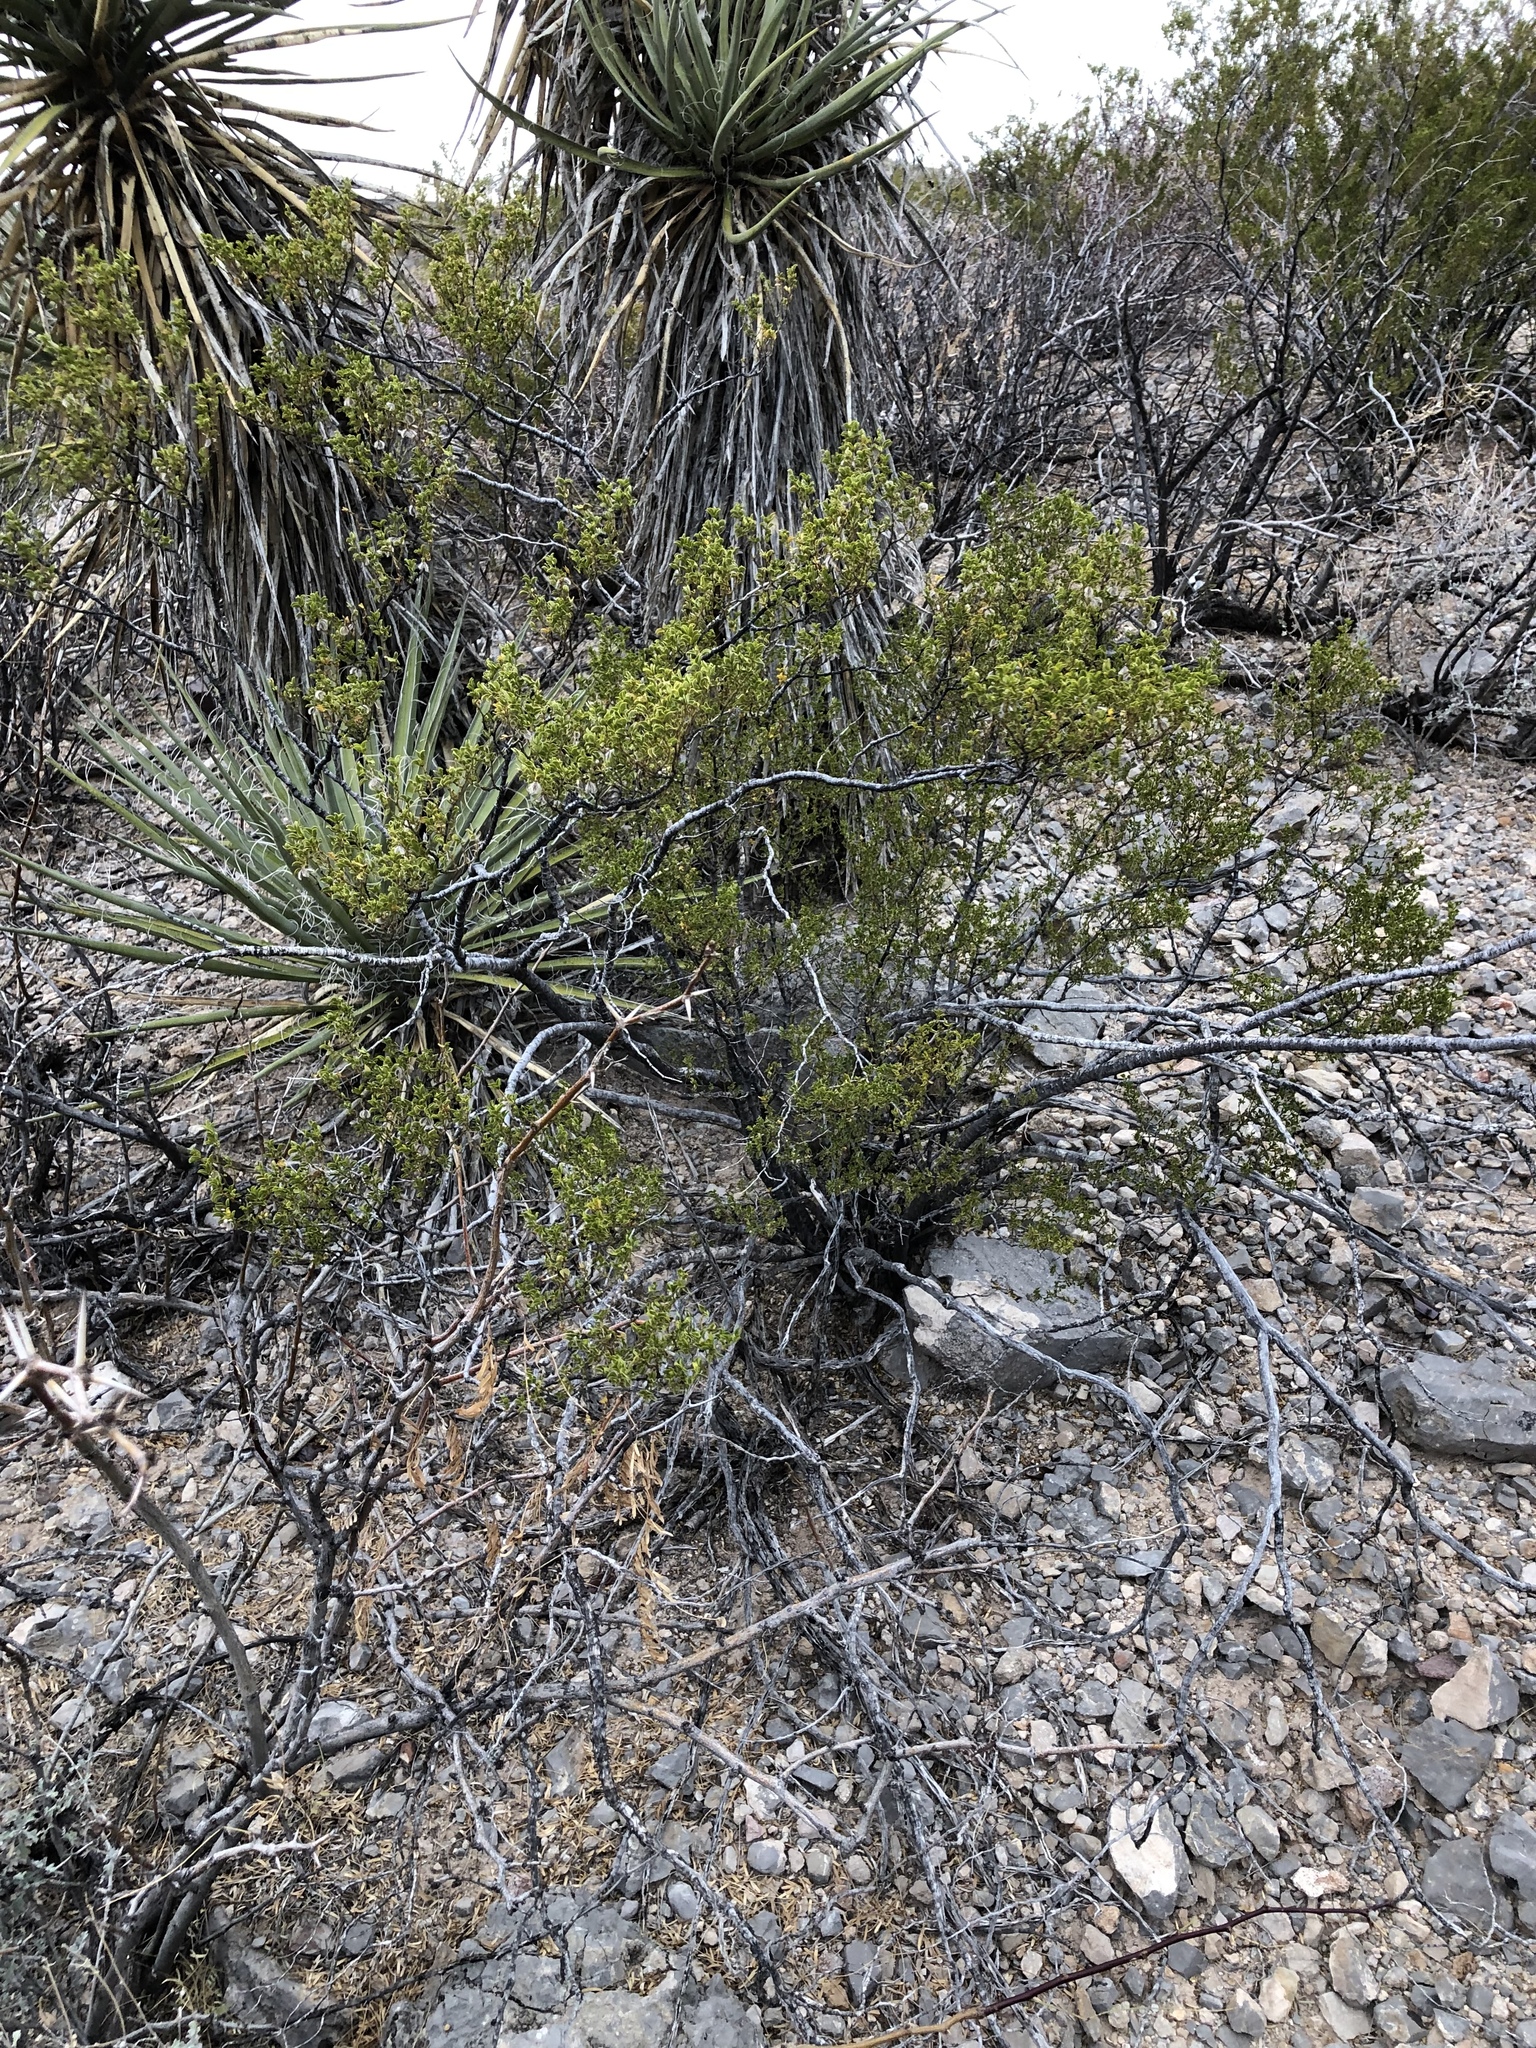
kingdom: Plantae
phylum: Tracheophyta
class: Magnoliopsida
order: Zygophyllales
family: Zygophyllaceae
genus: Larrea
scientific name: Larrea tridentata
